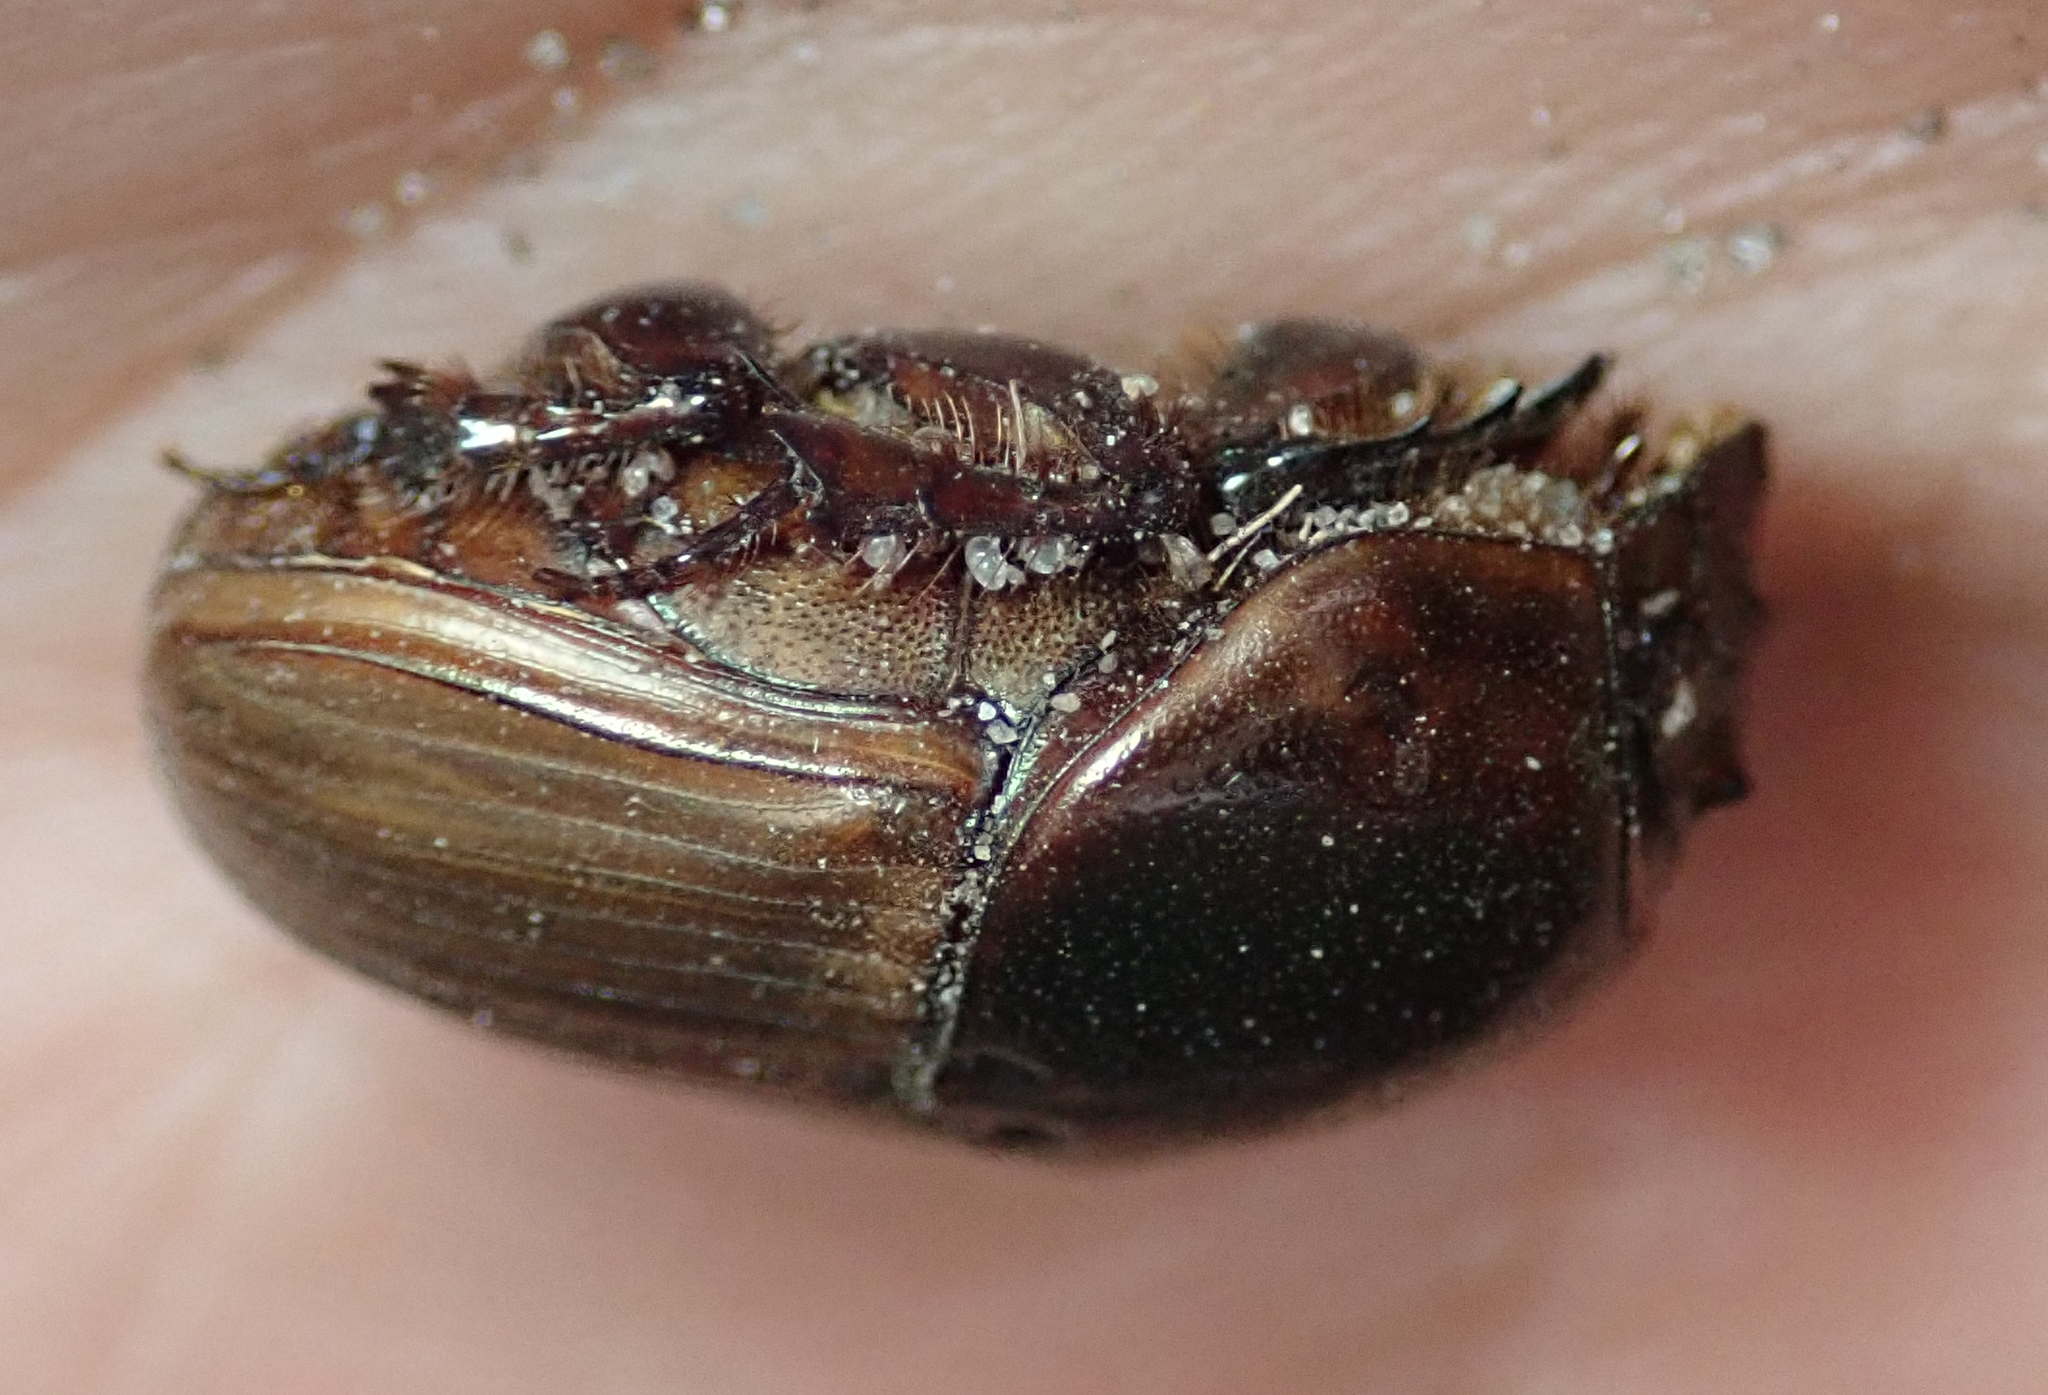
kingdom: Animalia
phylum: Arthropoda
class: Insecta
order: Coleoptera
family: Scarabaeidae
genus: Onitis
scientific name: Onitis alexis
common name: Alexis dung beetle
